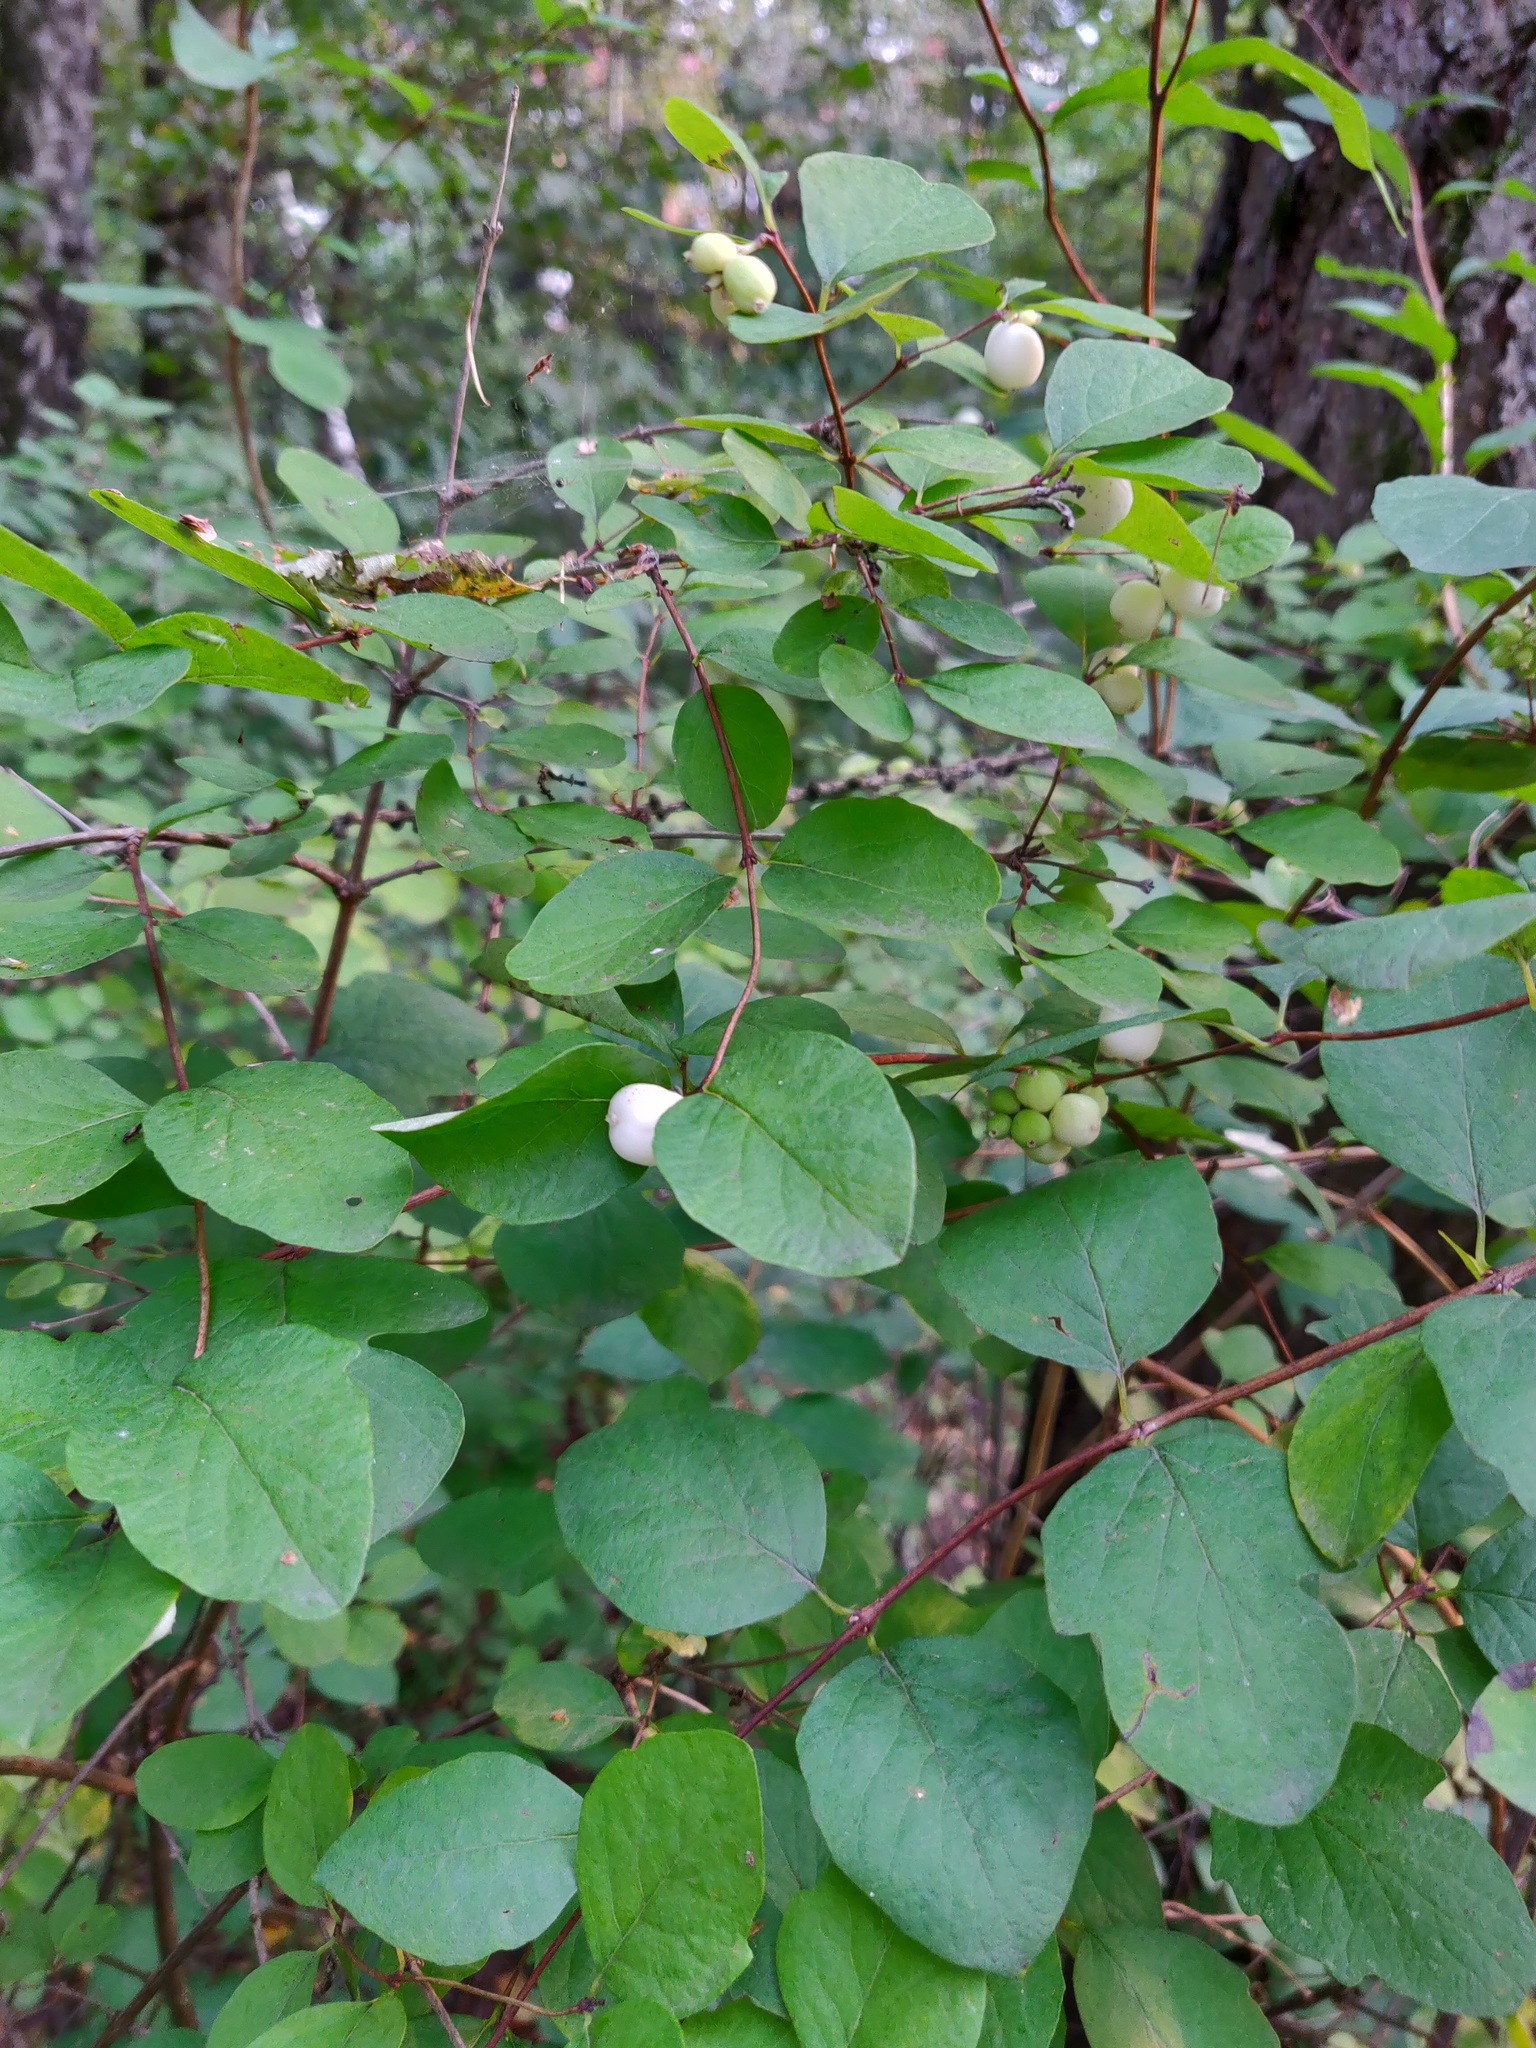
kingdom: Plantae
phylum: Tracheophyta
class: Magnoliopsida
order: Dipsacales
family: Caprifoliaceae
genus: Symphoricarpos
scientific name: Symphoricarpos albus
